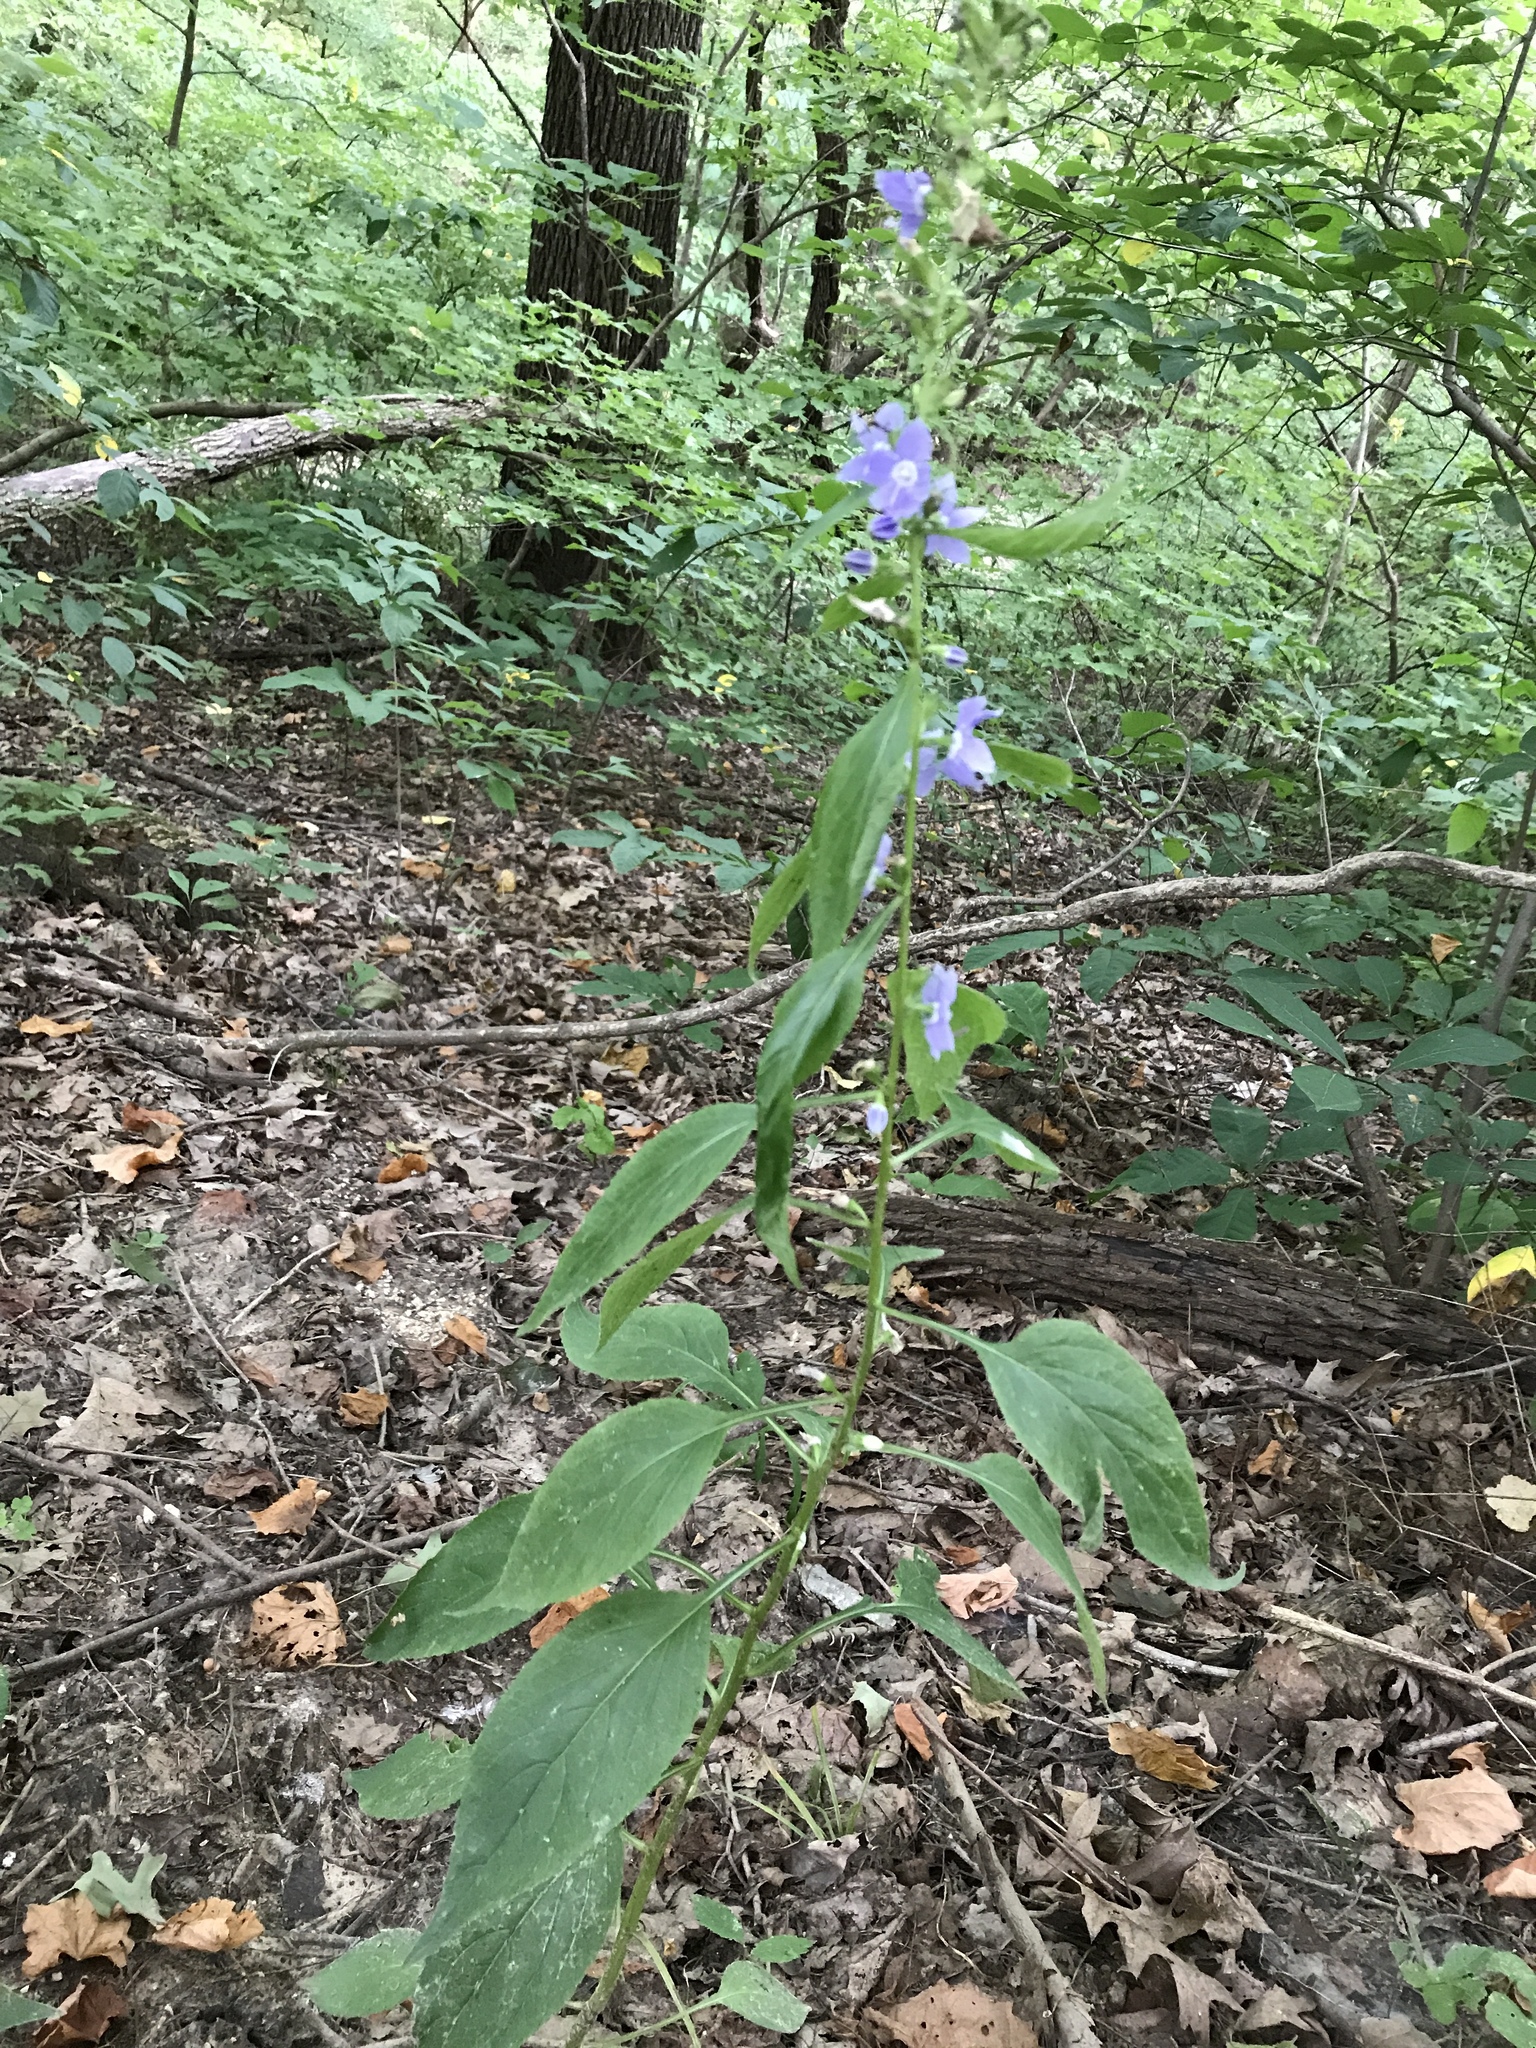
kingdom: Plantae
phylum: Tracheophyta
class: Magnoliopsida
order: Asterales
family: Campanulaceae
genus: Campanulastrum
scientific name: Campanulastrum americanum
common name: American bellflower
